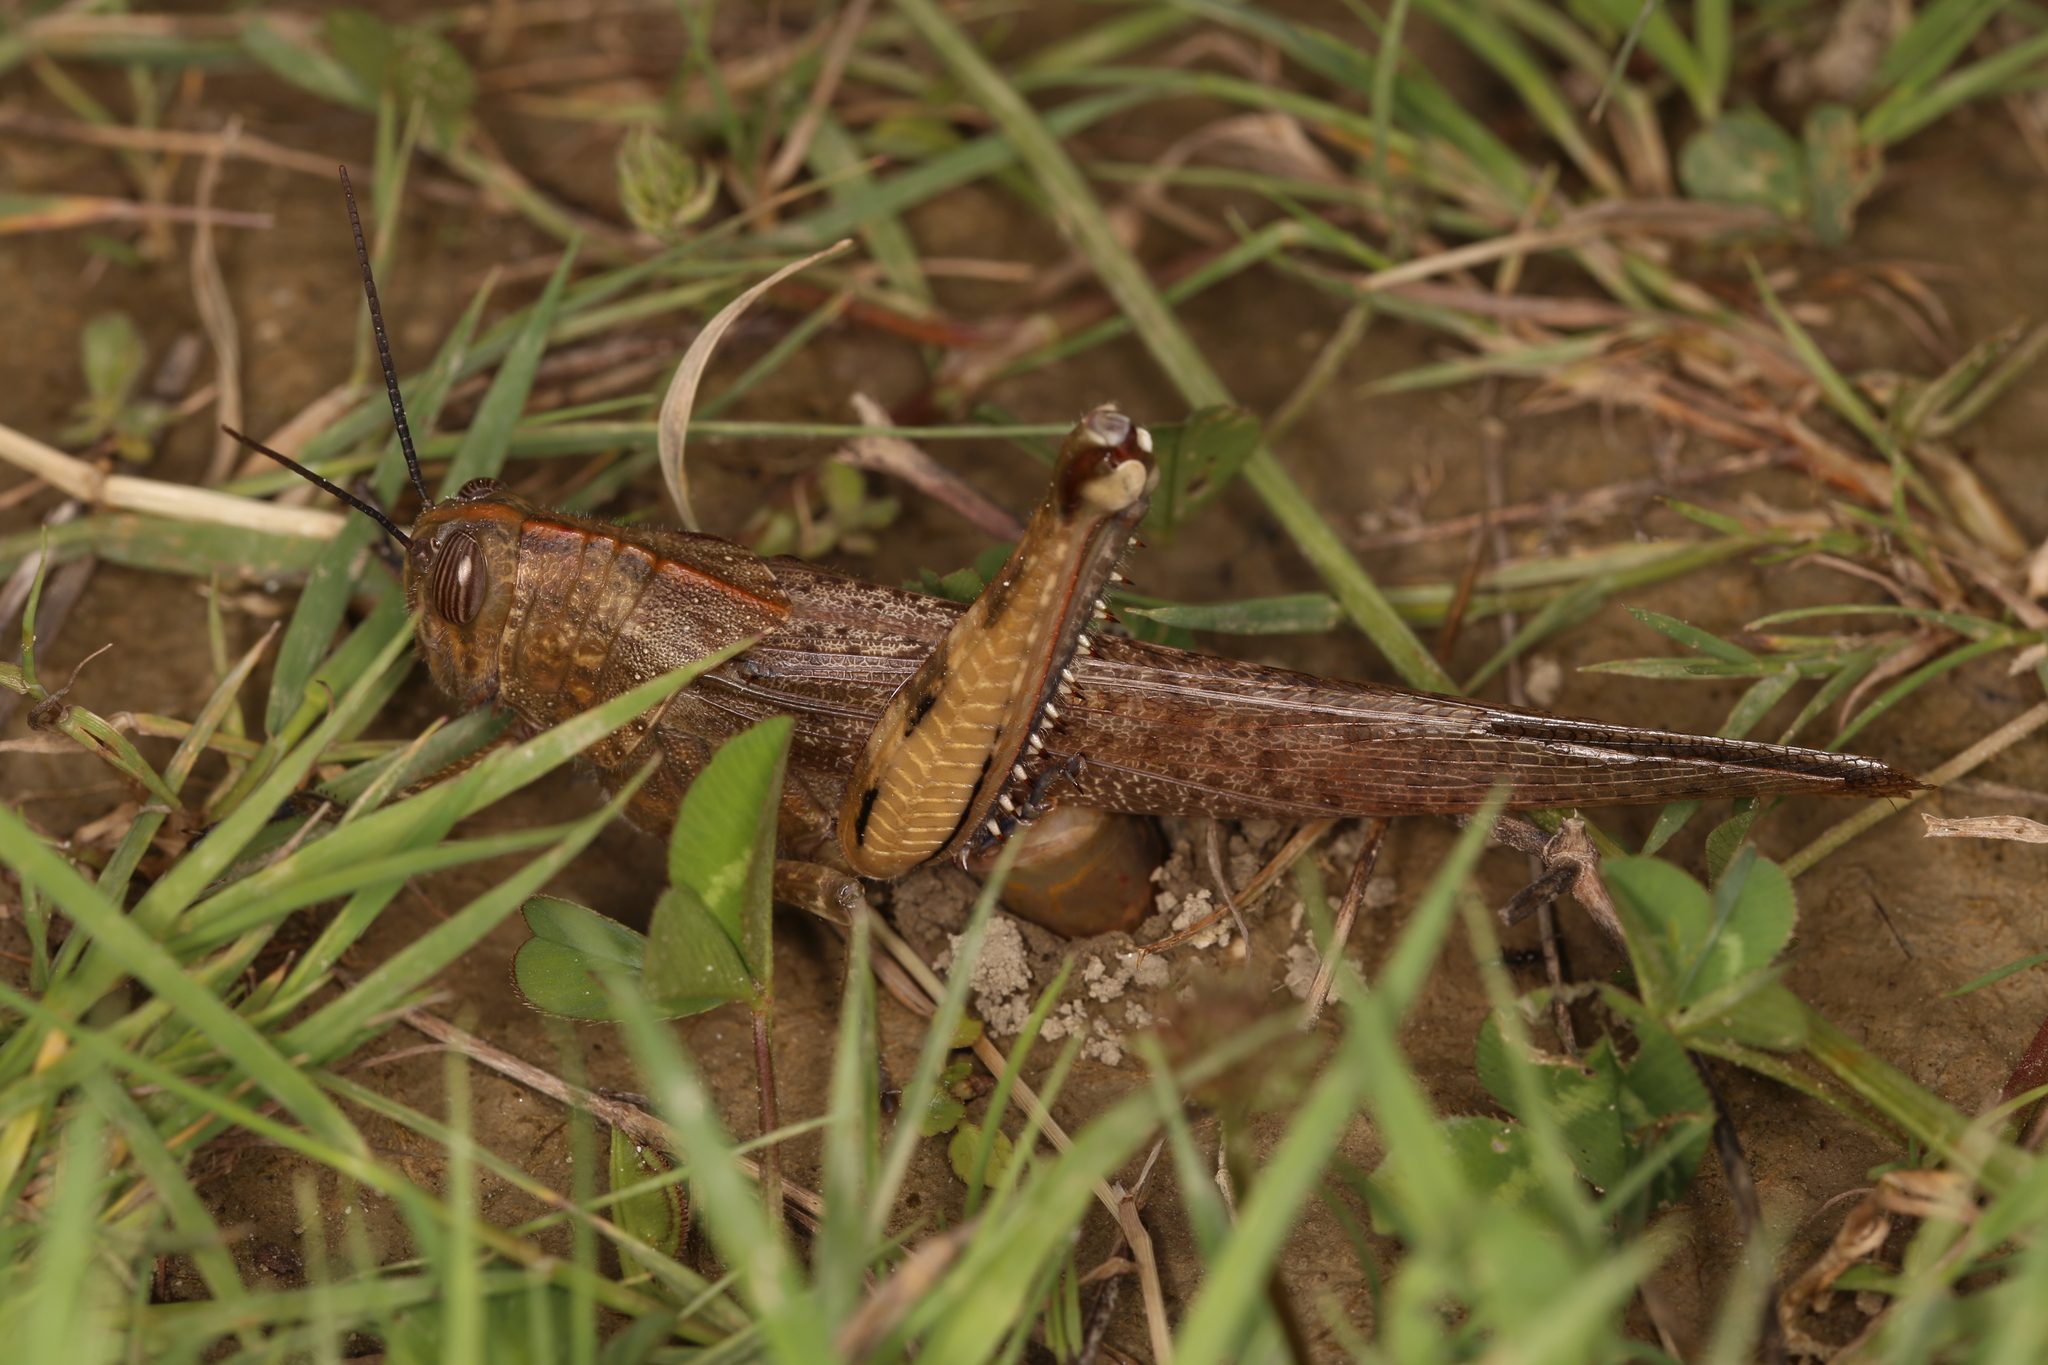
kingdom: Animalia
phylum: Arthropoda
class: Insecta
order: Orthoptera
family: Acrididae
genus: Anacridium
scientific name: Anacridium aegyptium
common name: Egyptian grasshopper
